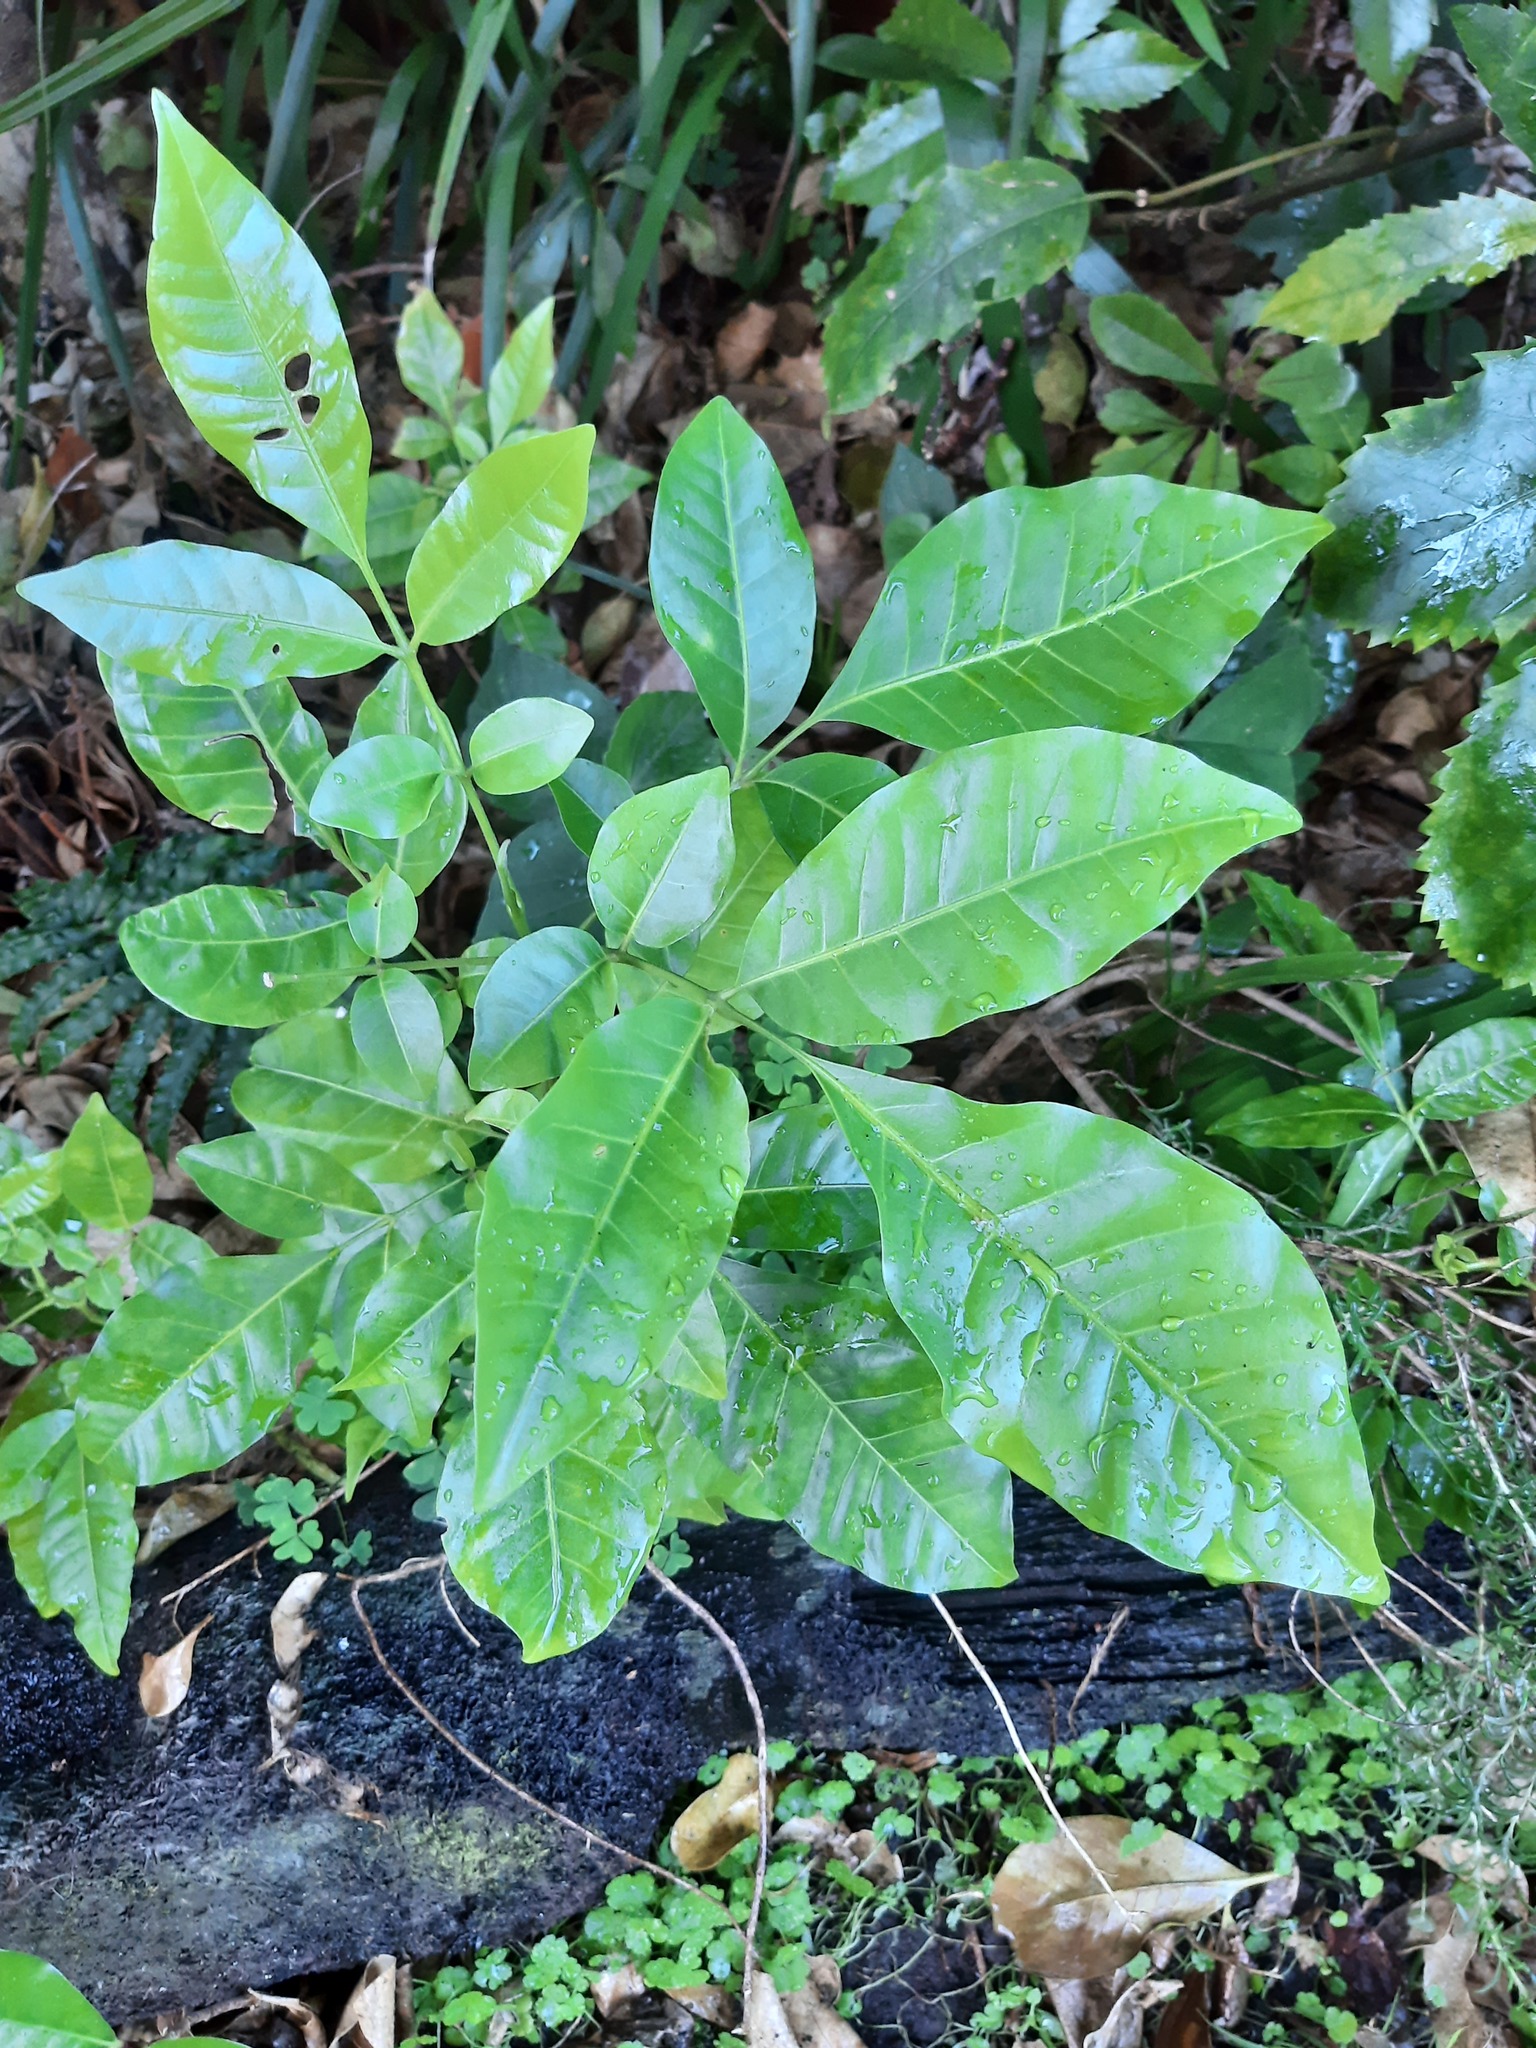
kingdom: Plantae
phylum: Tracheophyta
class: Magnoliopsida
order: Sapindales
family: Meliaceae
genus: Didymocheton
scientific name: Didymocheton spectabilis
